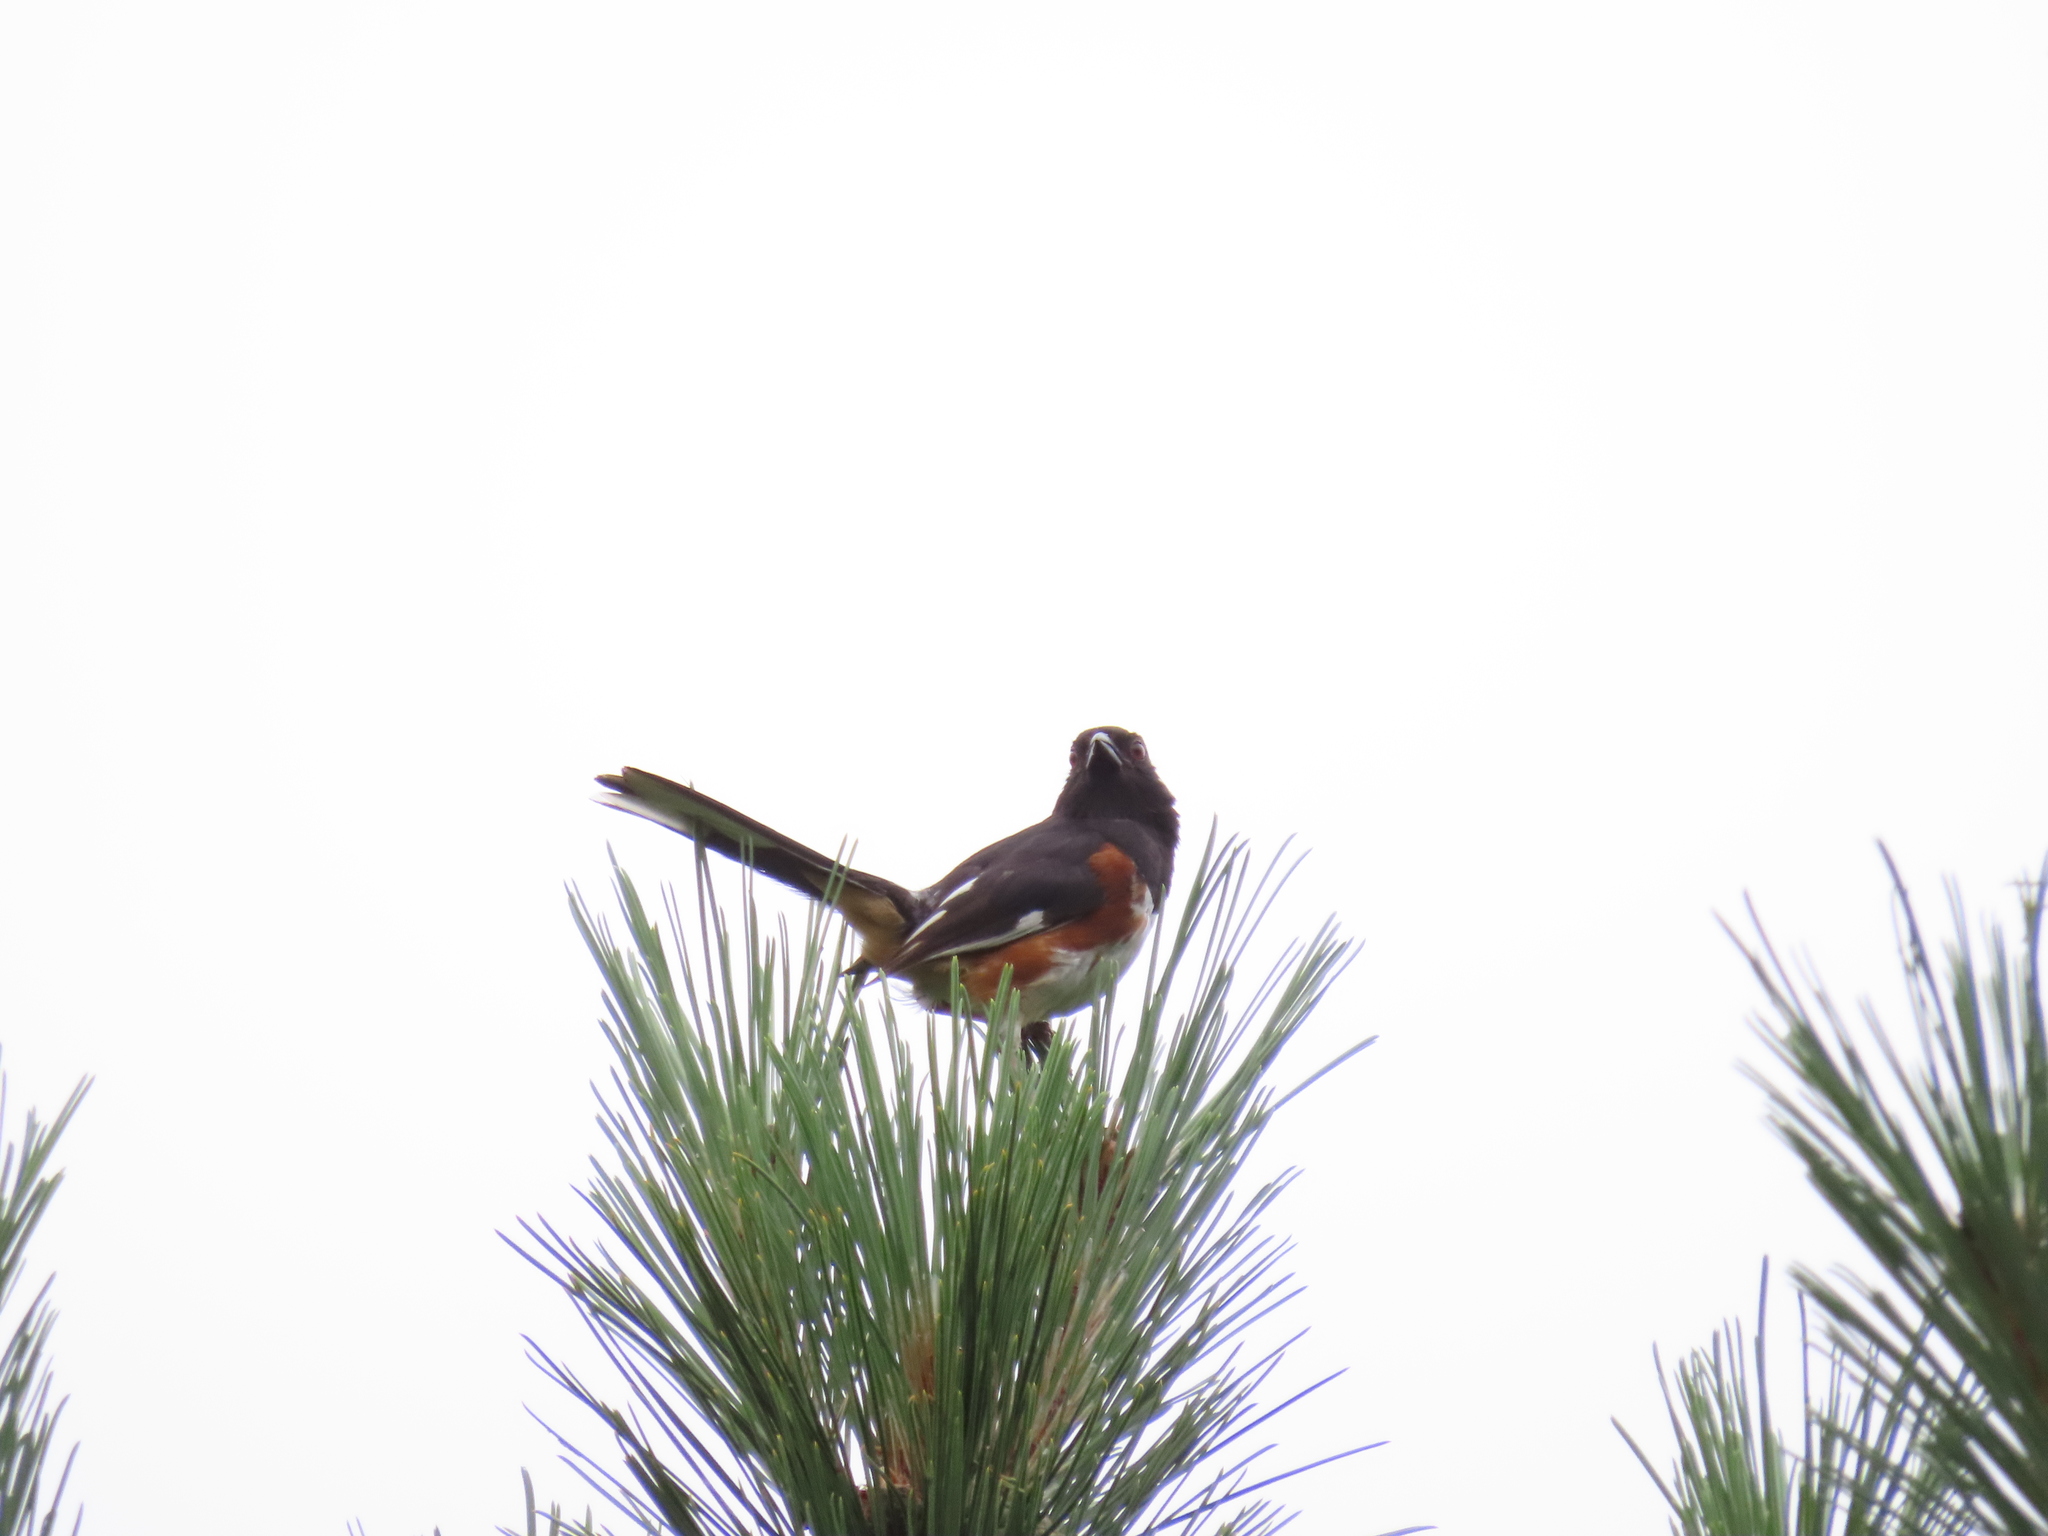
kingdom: Animalia
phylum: Chordata
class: Aves
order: Passeriformes
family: Passerellidae
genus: Pipilo
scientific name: Pipilo erythrophthalmus
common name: Eastern towhee
